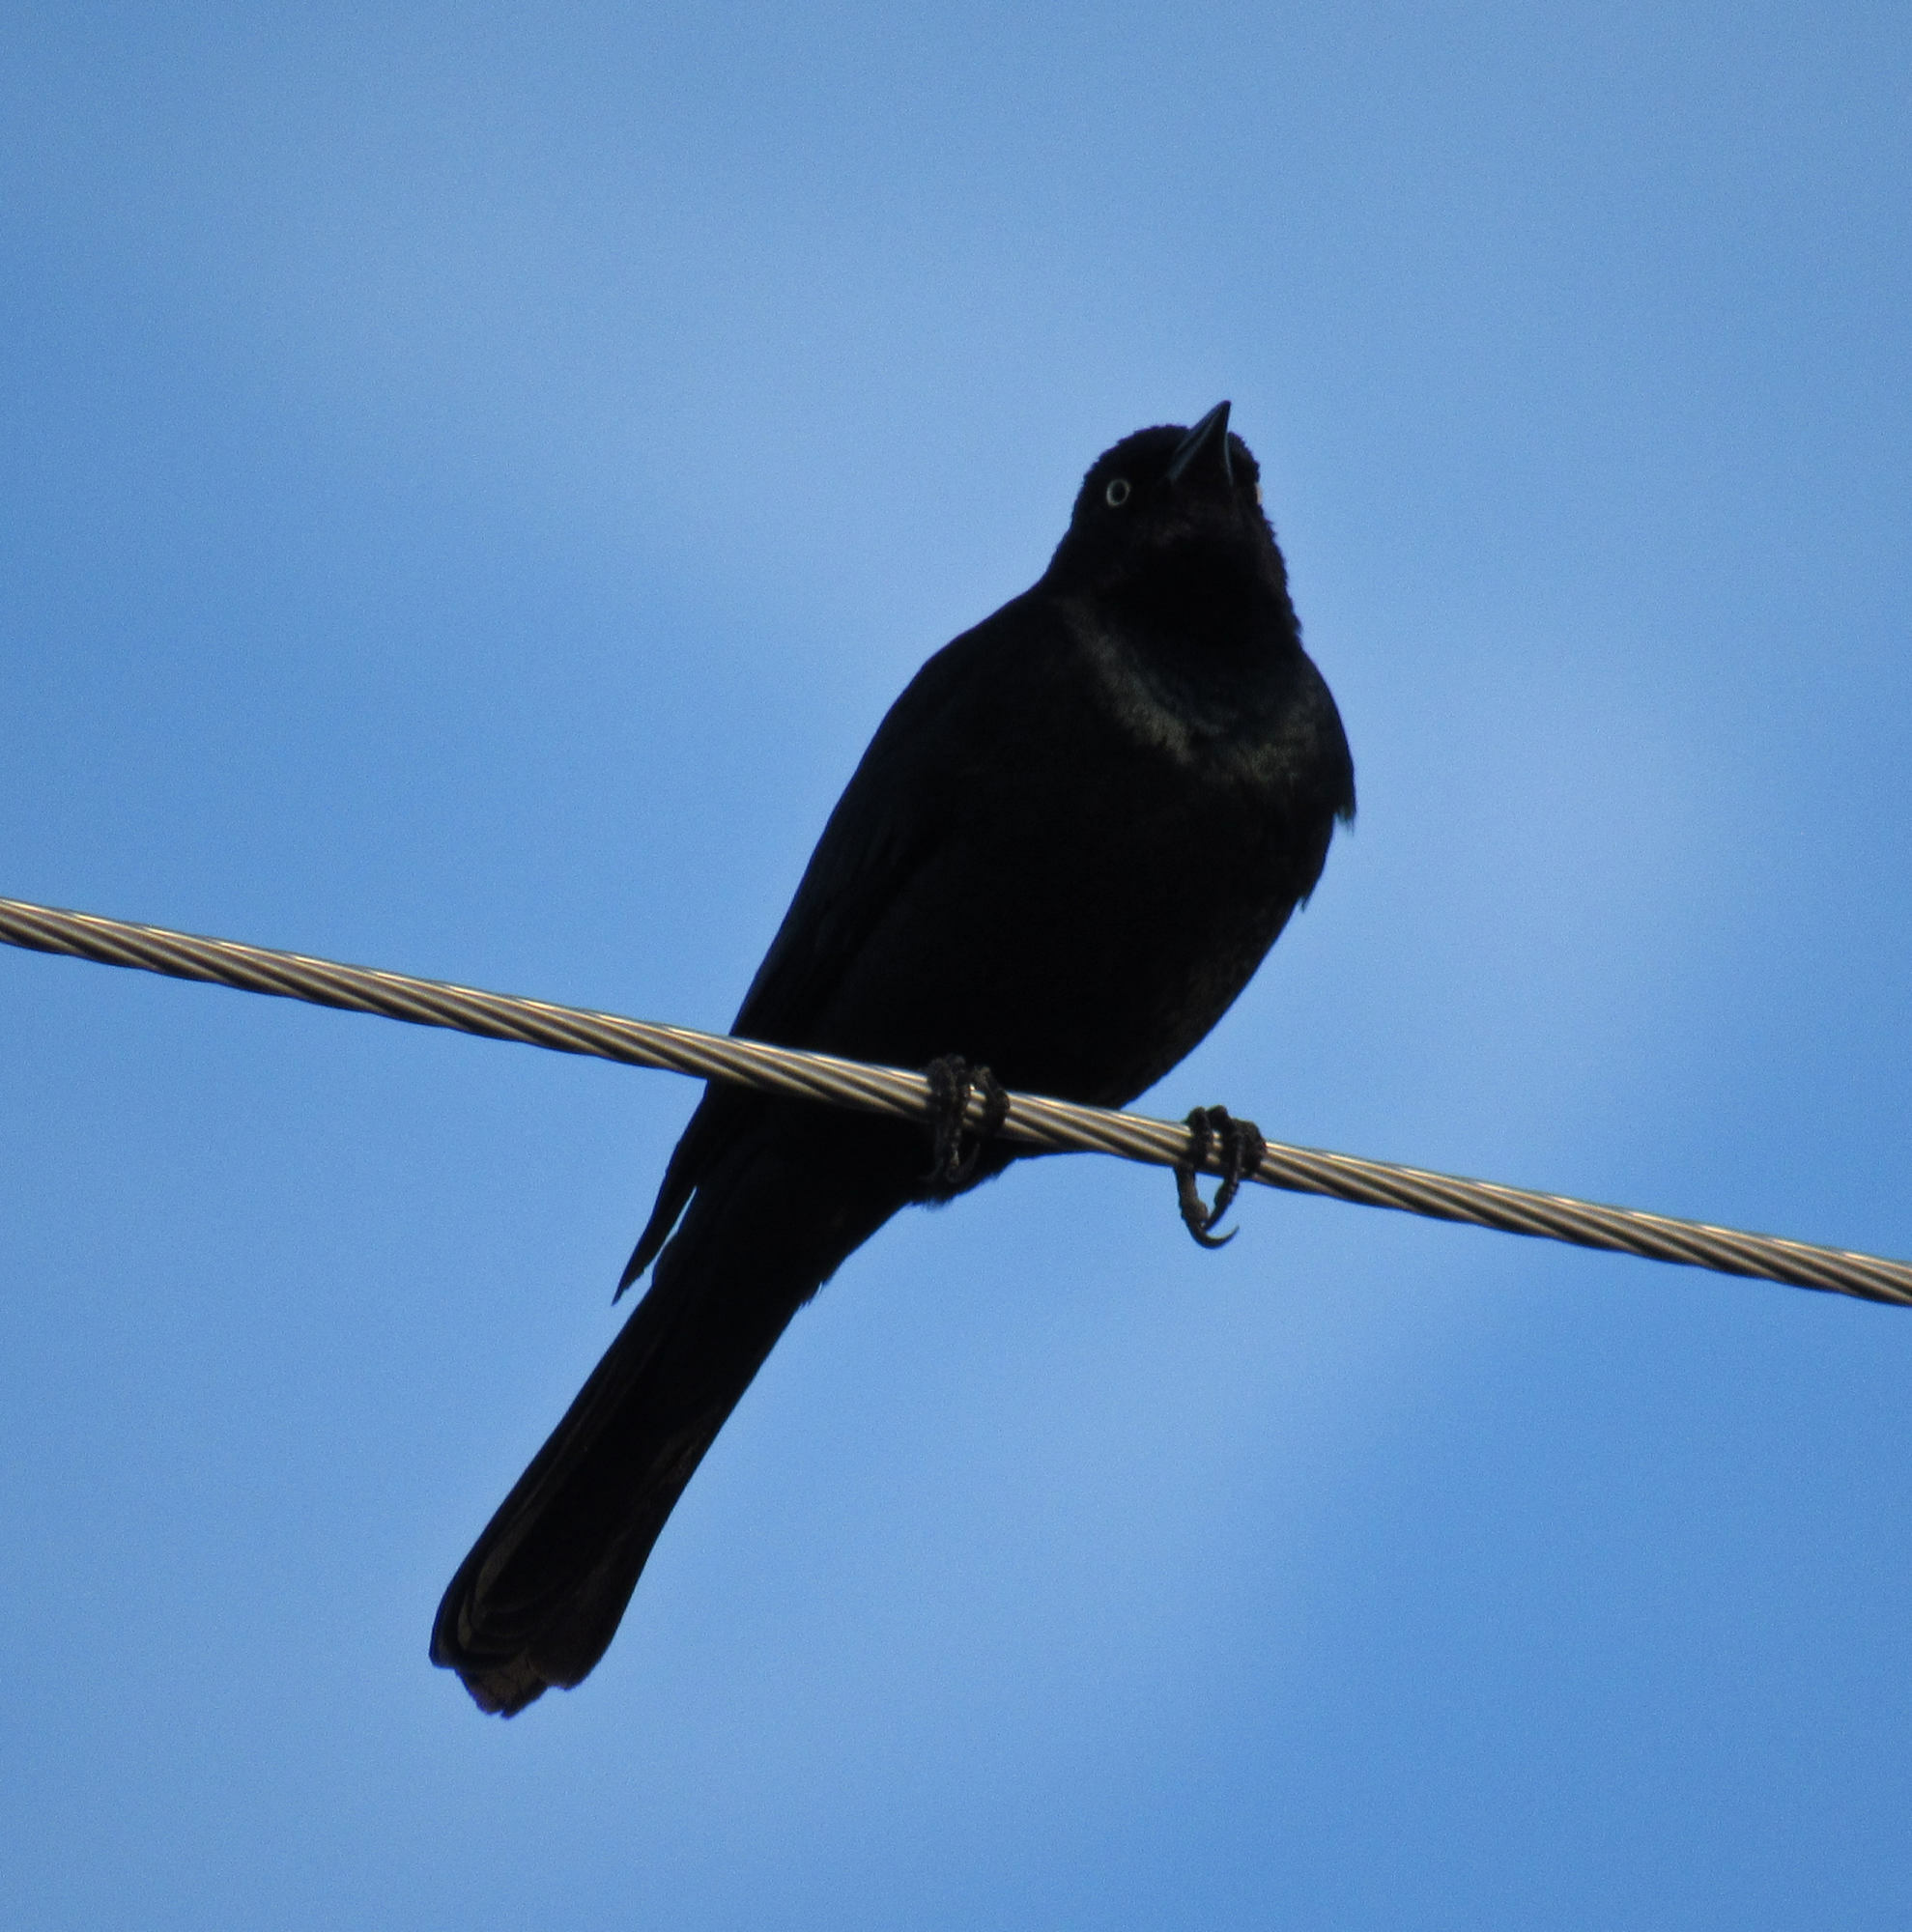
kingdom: Animalia
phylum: Chordata
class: Aves
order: Passeriformes
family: Icteridae
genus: Euphagus
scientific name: Euphagus cyanocephalus
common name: Brewer's blackbird
